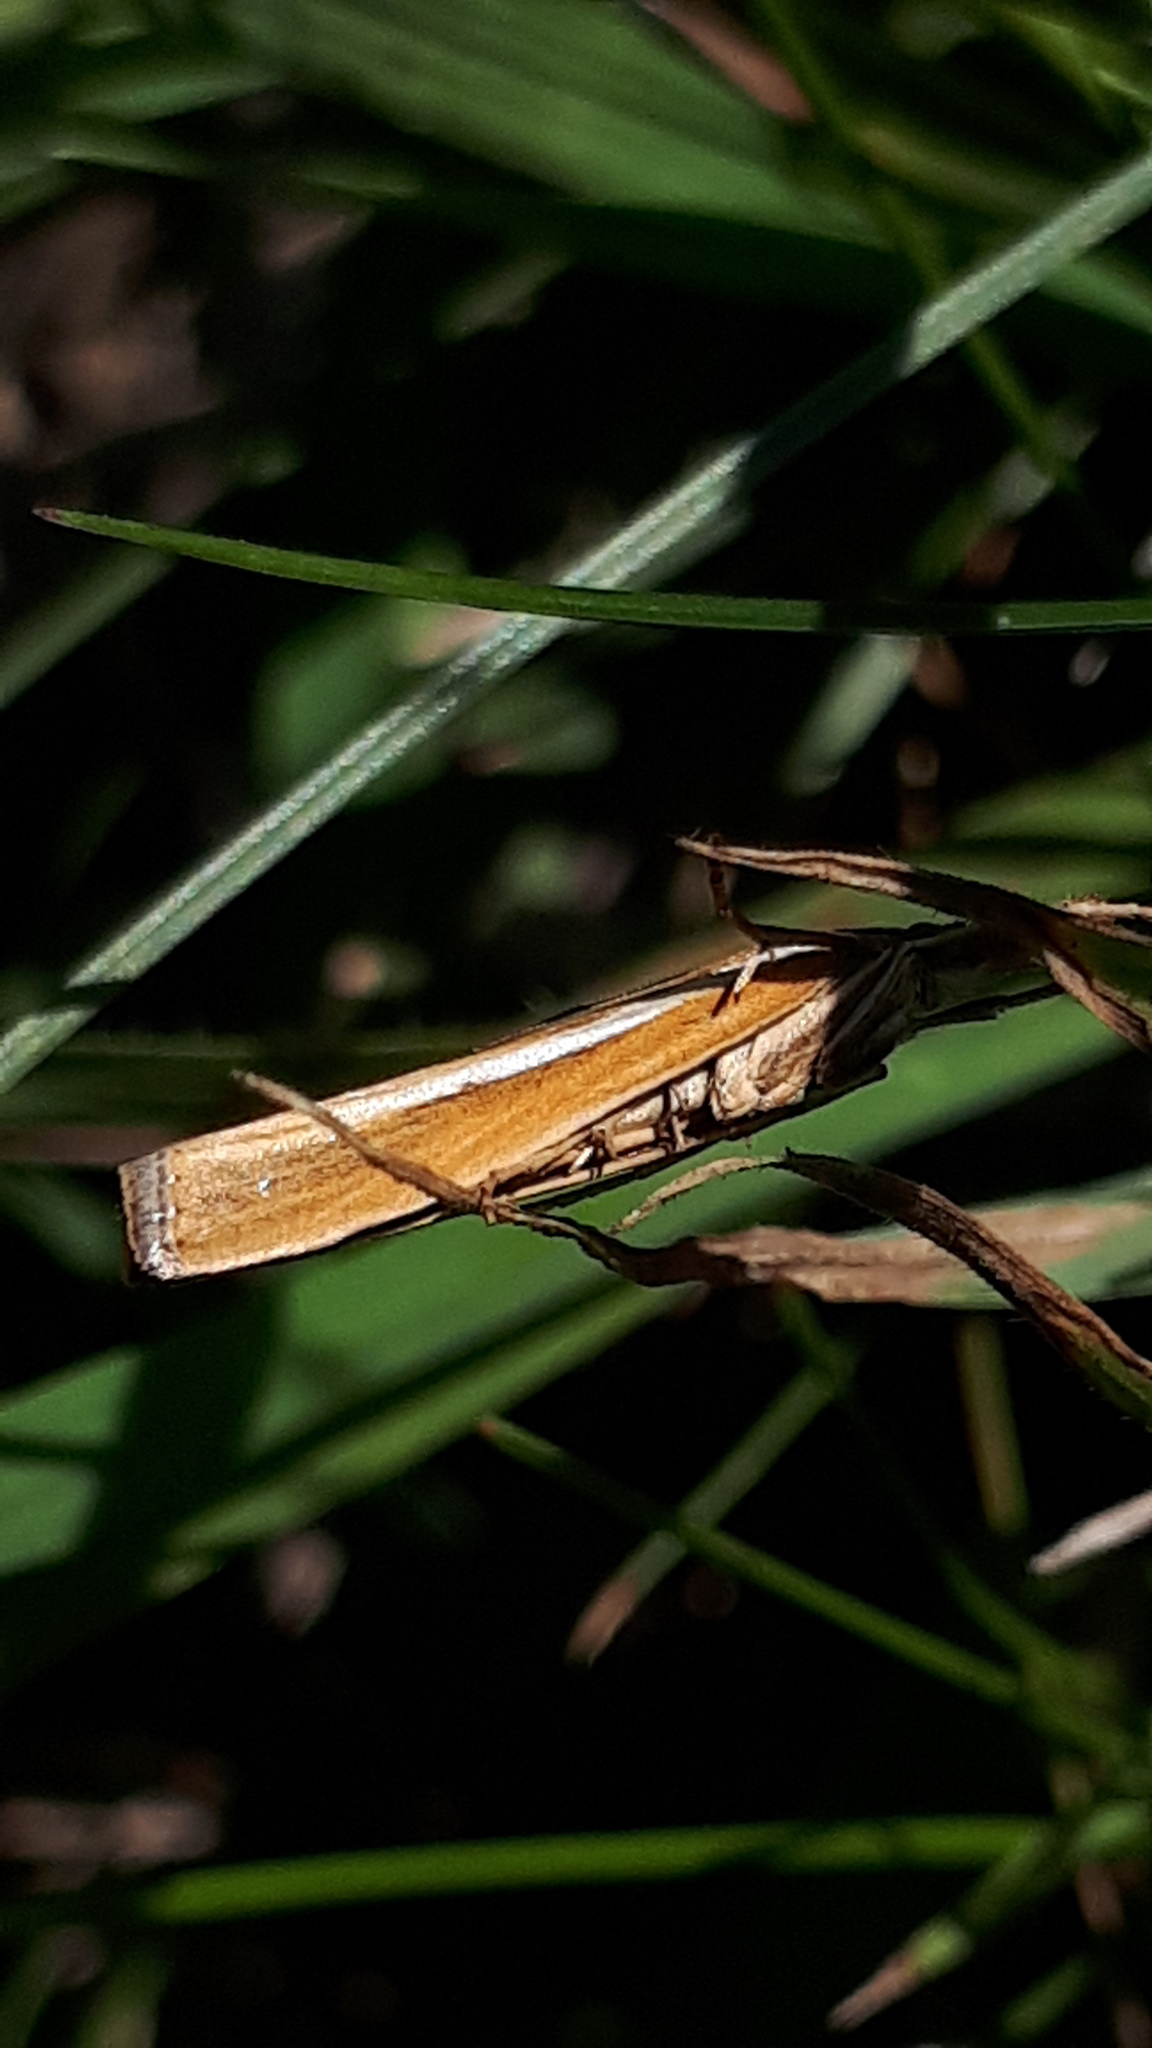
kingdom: Animalia
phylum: Arthropoda
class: Insecta
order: Lepidoptera
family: Crambidae
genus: Agriphila
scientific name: Agriphila tristellus
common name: Common grass-veneer
